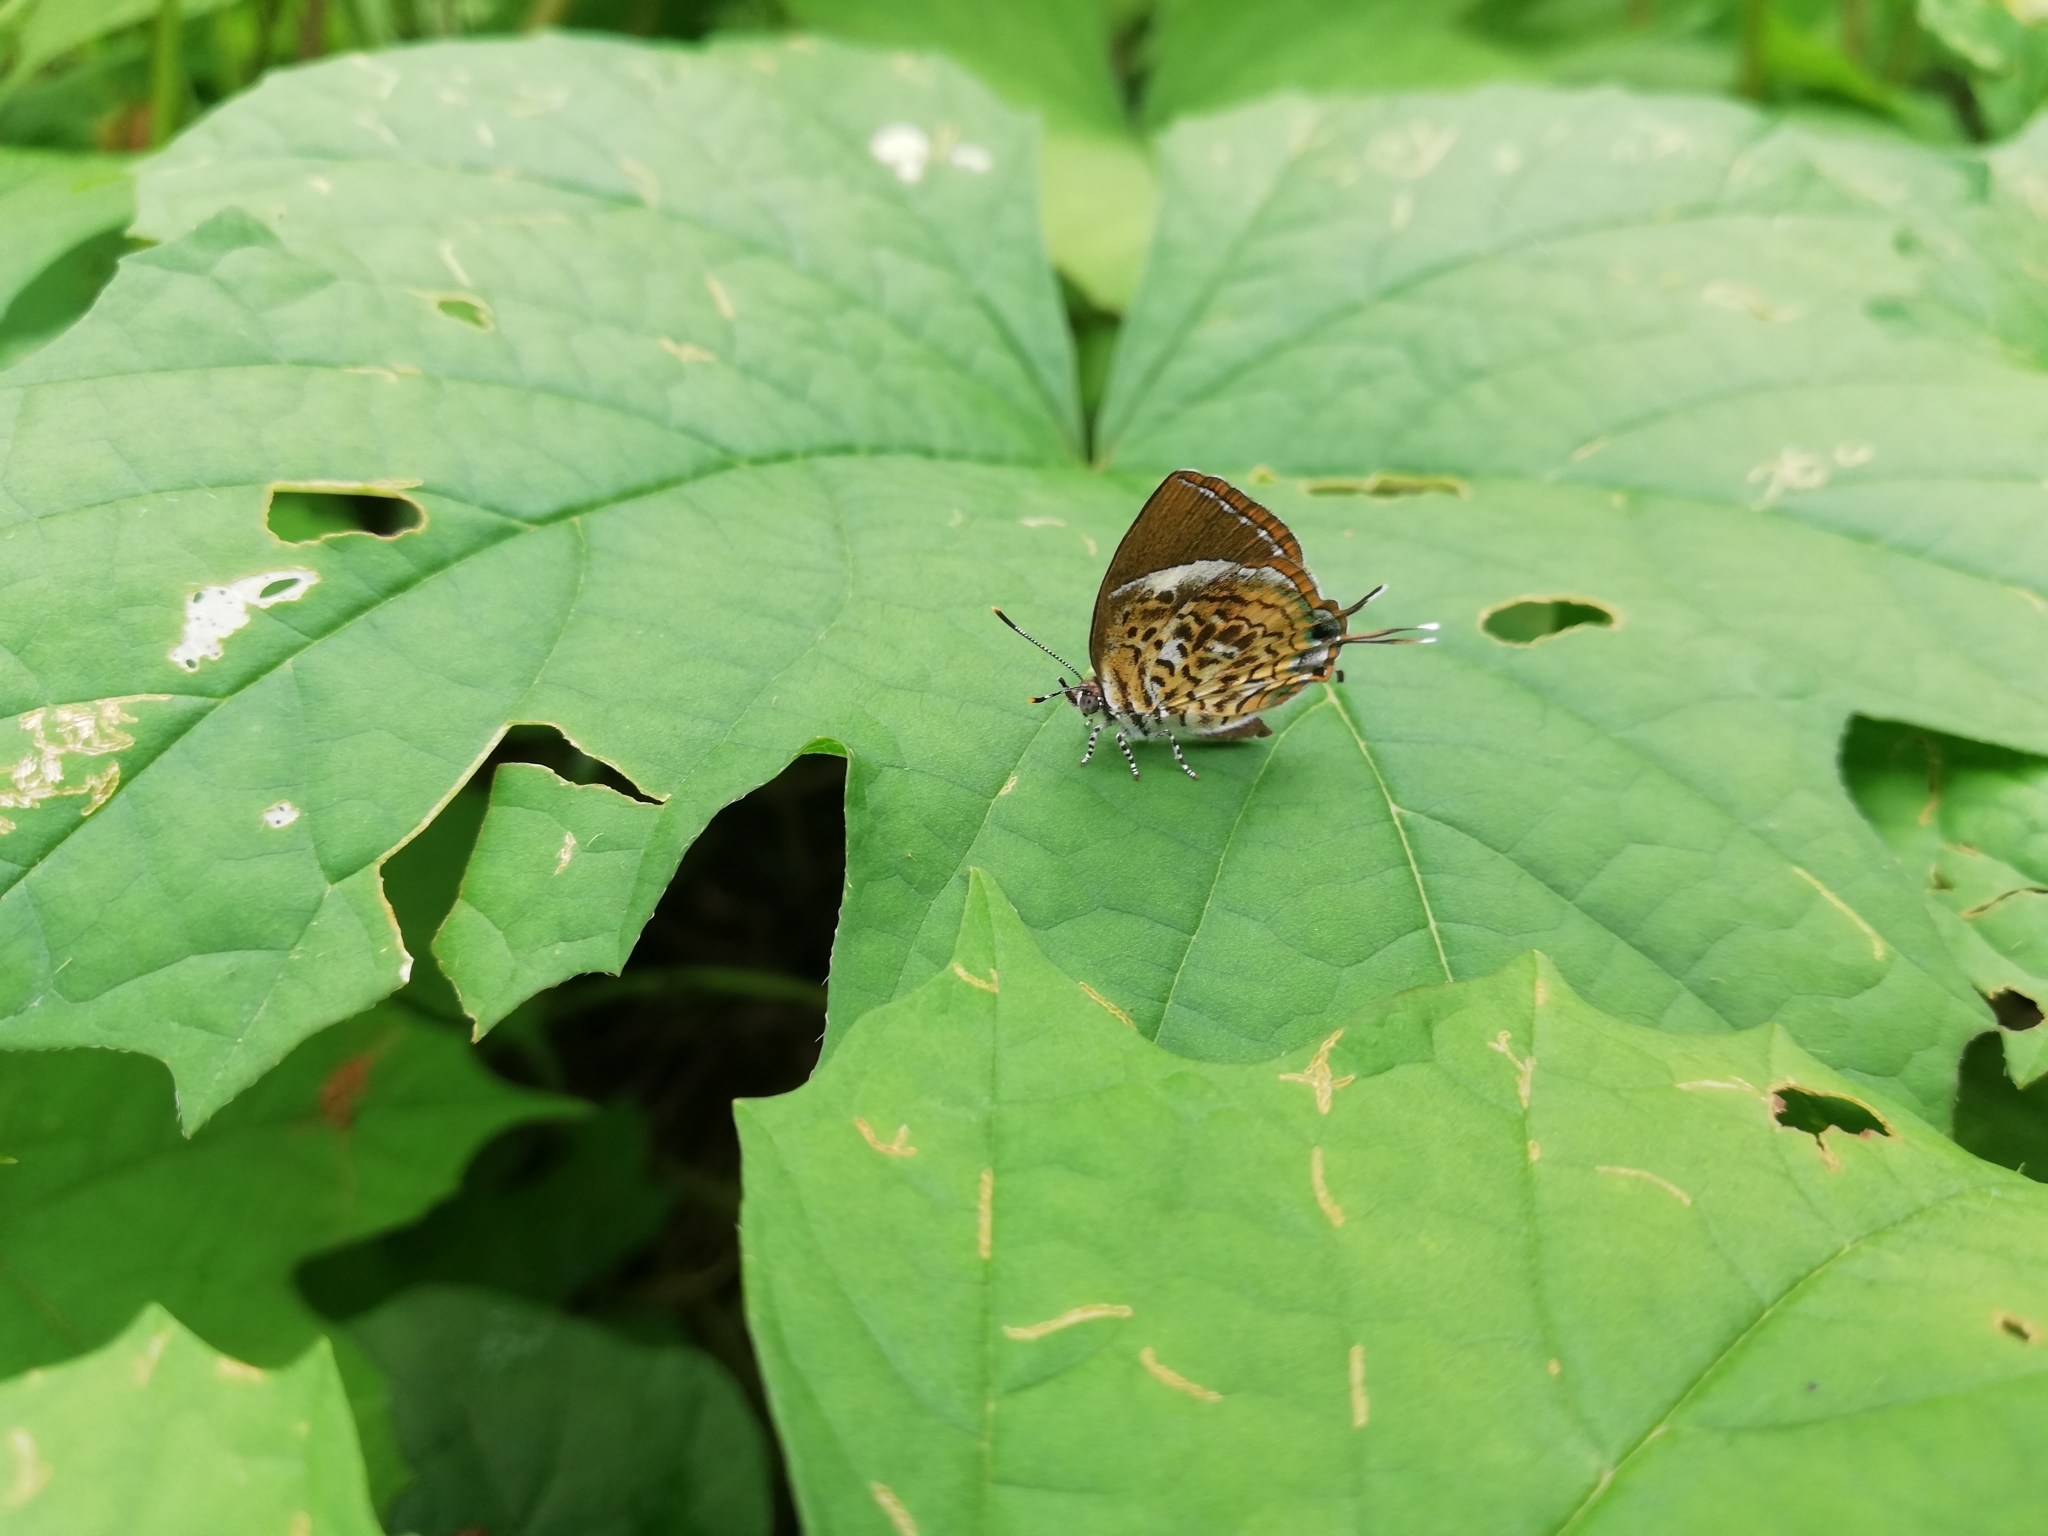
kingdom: Animalia
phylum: Arthropoda
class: Insecta
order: Lepidoptera
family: Lycaenidae
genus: Rathinda
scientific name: Rathinda amor
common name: Monkey puzzle
